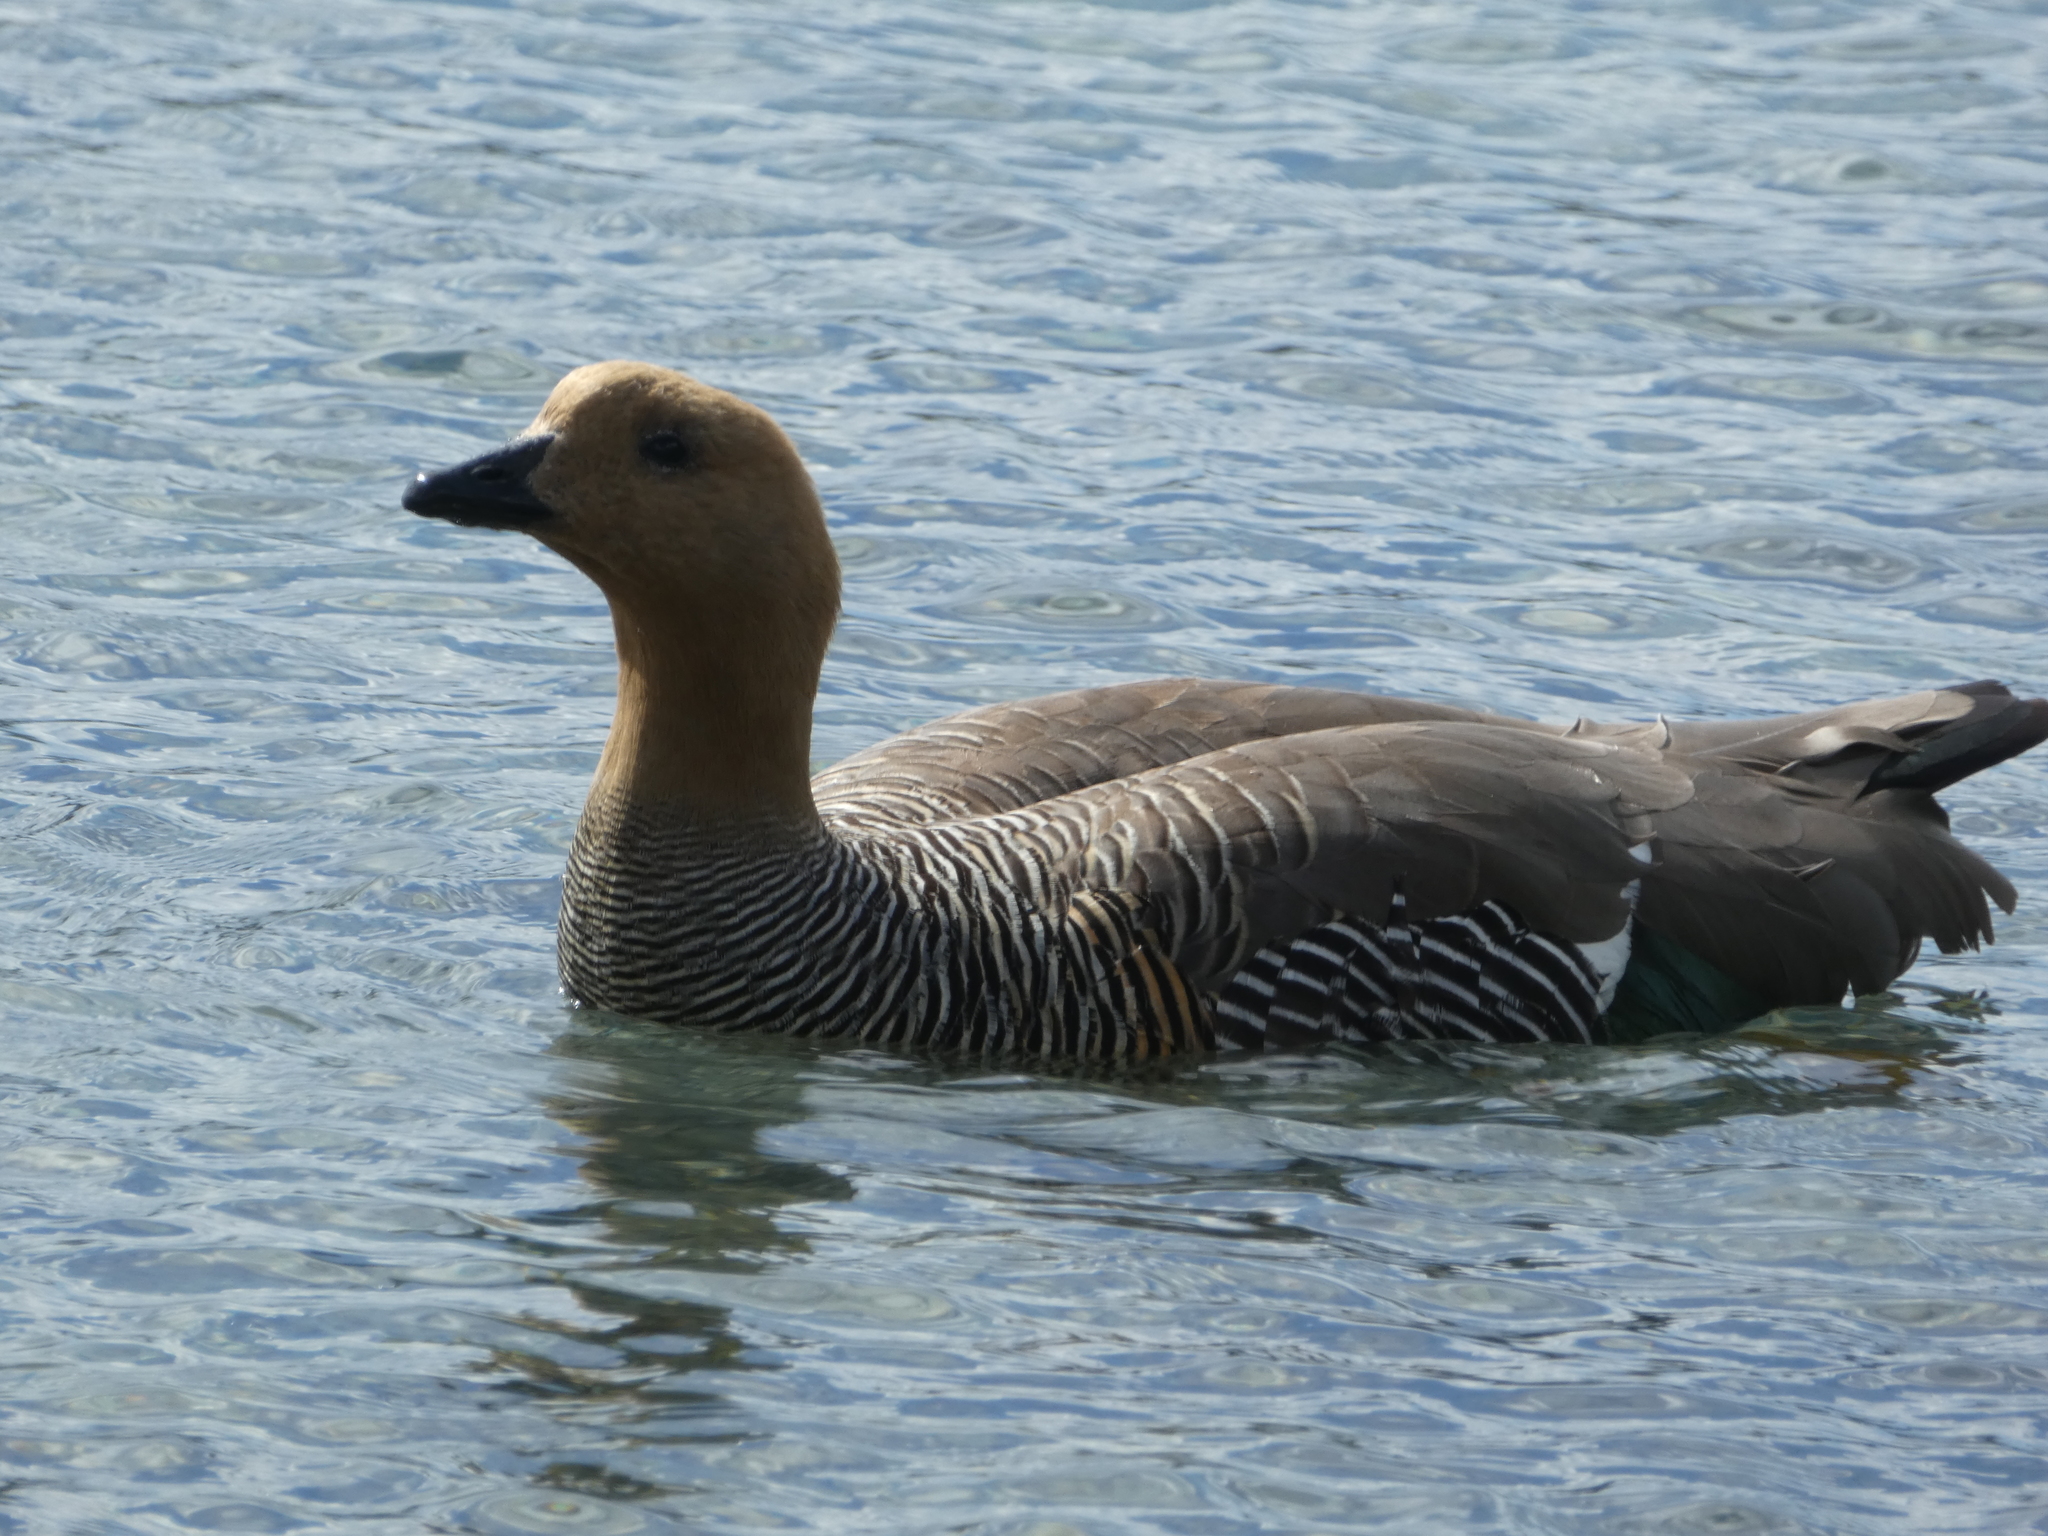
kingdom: Animalia
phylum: Chordata
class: Aves
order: Anseriformes
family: Anatidae
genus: Chloephaga
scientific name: Chloephaga picta
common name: Upland goose
